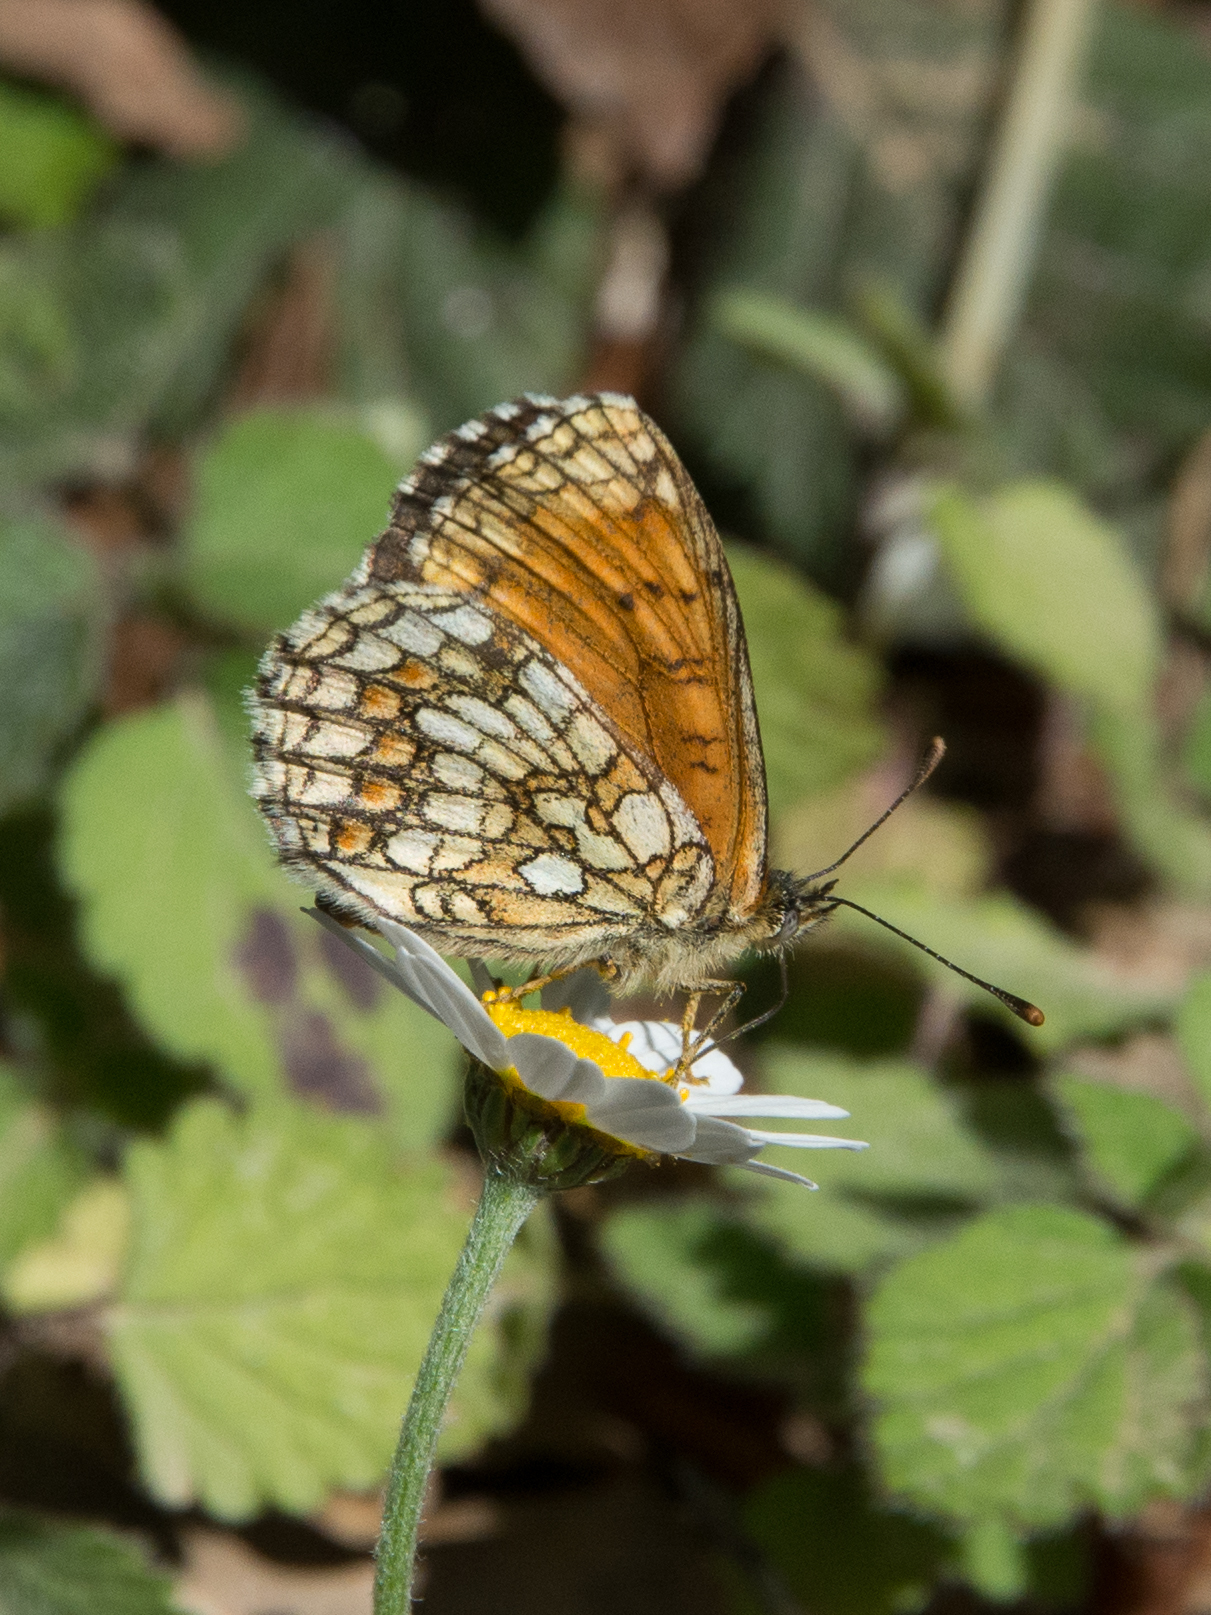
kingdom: Animalia
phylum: Arthropoda
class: Insecta
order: Lepidoptera
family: Nymphalidae
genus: Mellicta
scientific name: Mellicta athalia
